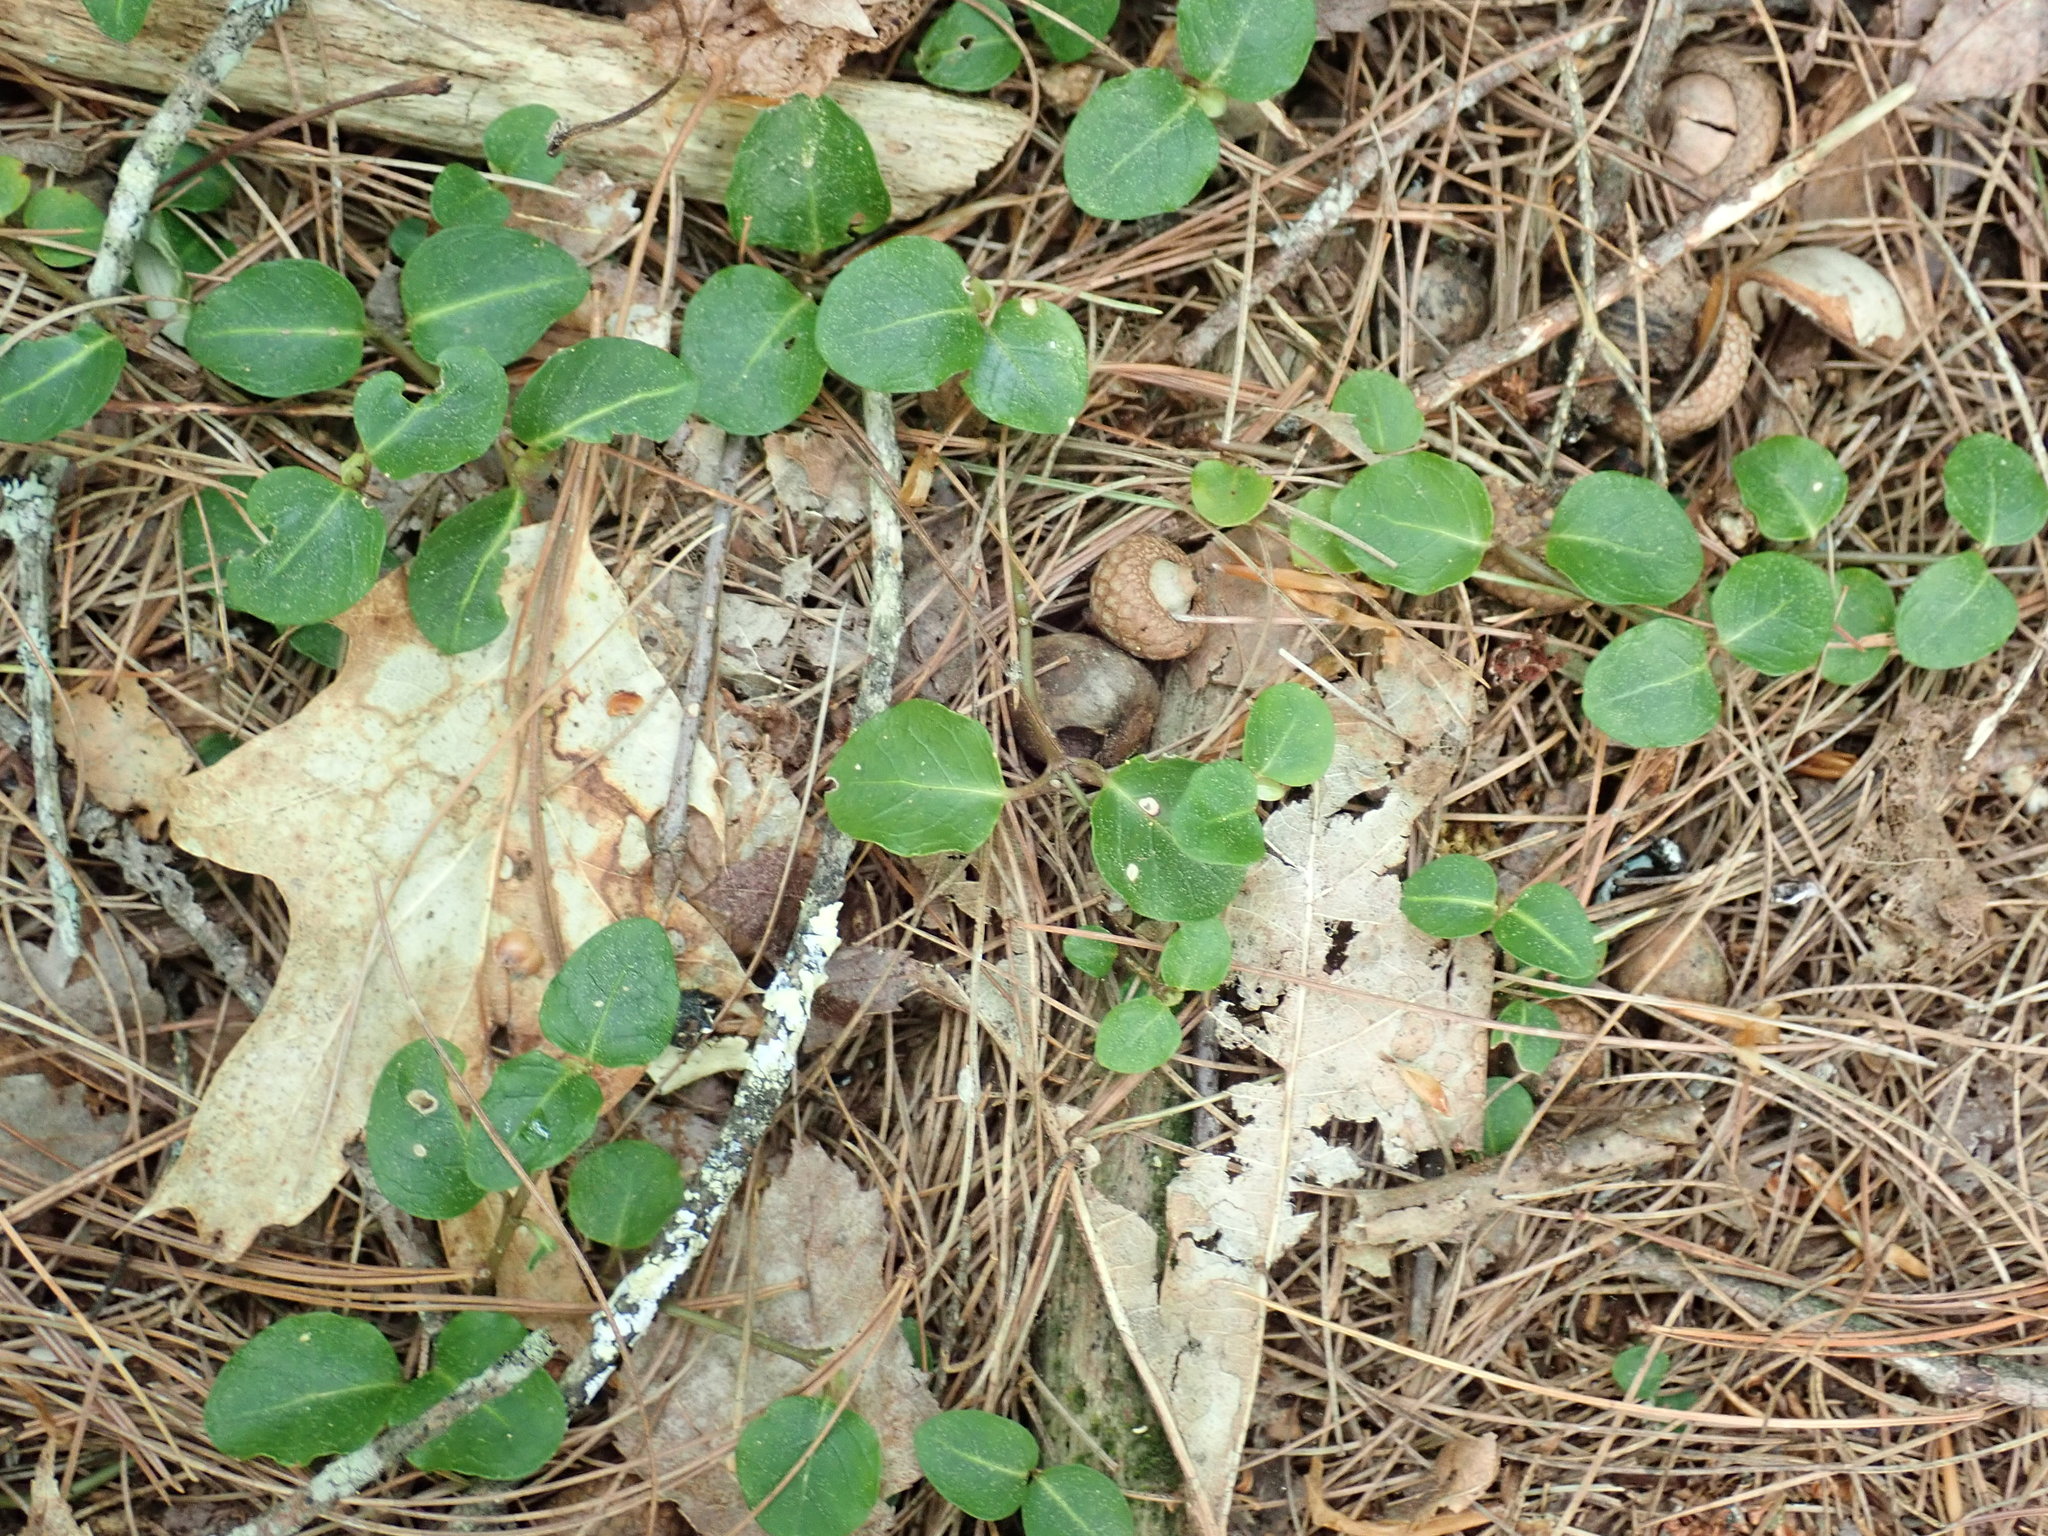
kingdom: Plantae
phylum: Tracheophyta
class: Magnoliopsida
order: Gentianales
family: Rubiaceae
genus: Mitchella
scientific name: Mitchella repens
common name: Partridge-berry
